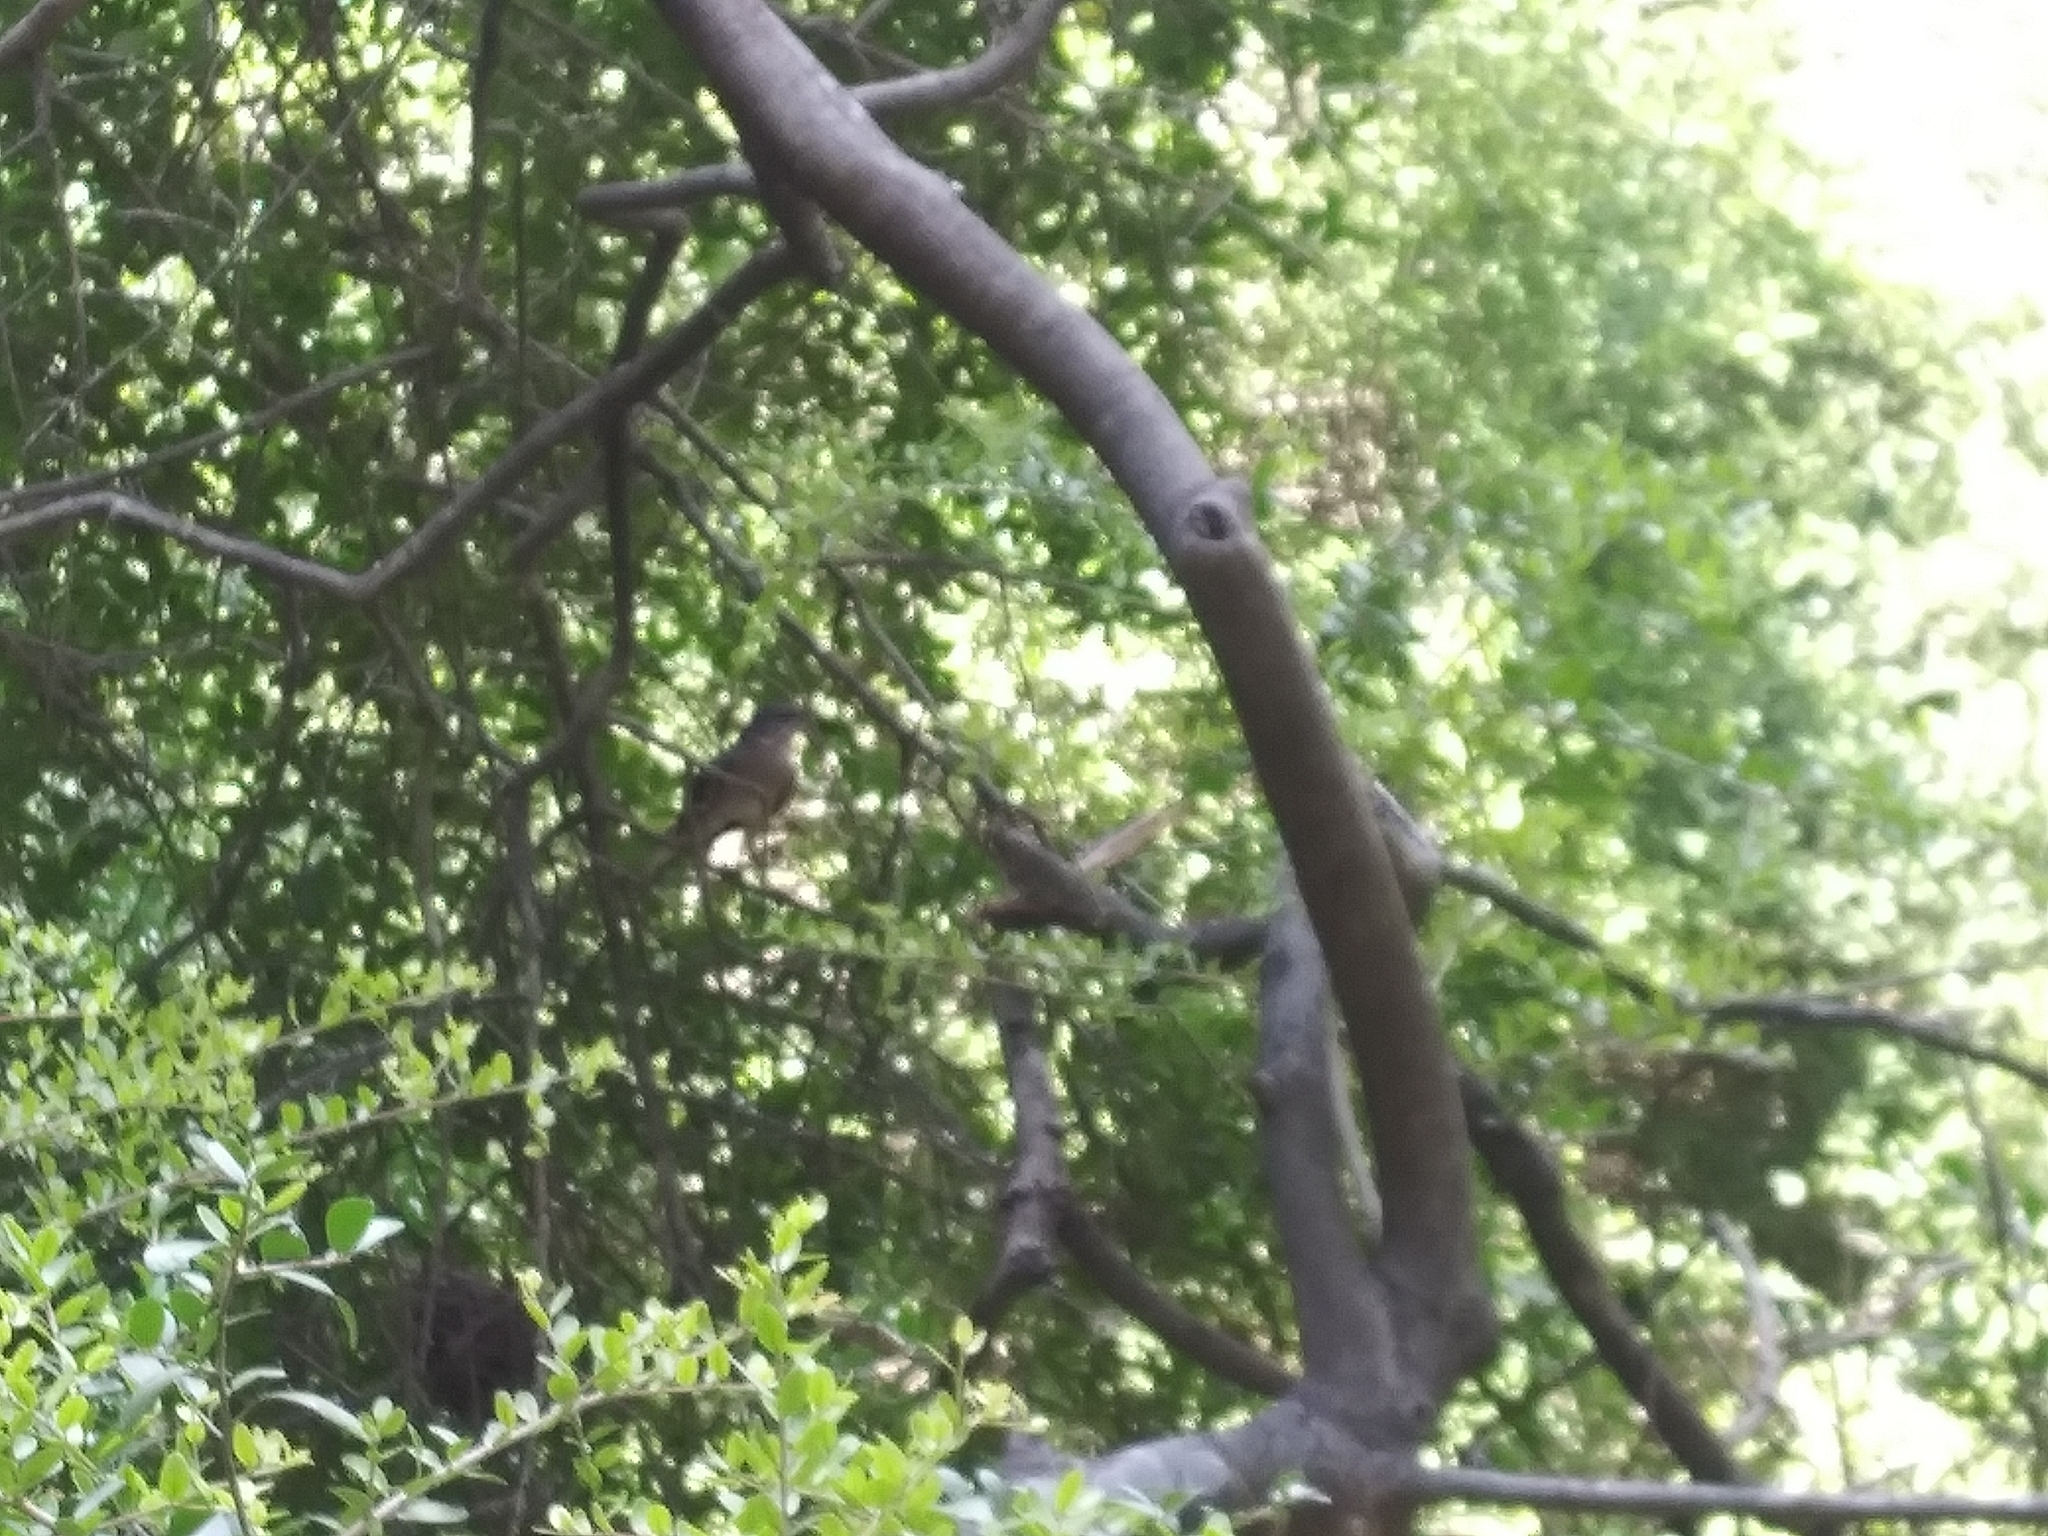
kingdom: Animalia
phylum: Chordata
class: Aves
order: Passeriformes
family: Mimidae
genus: Mimus
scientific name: Mimus polyglottos
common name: Northern mockingbird
